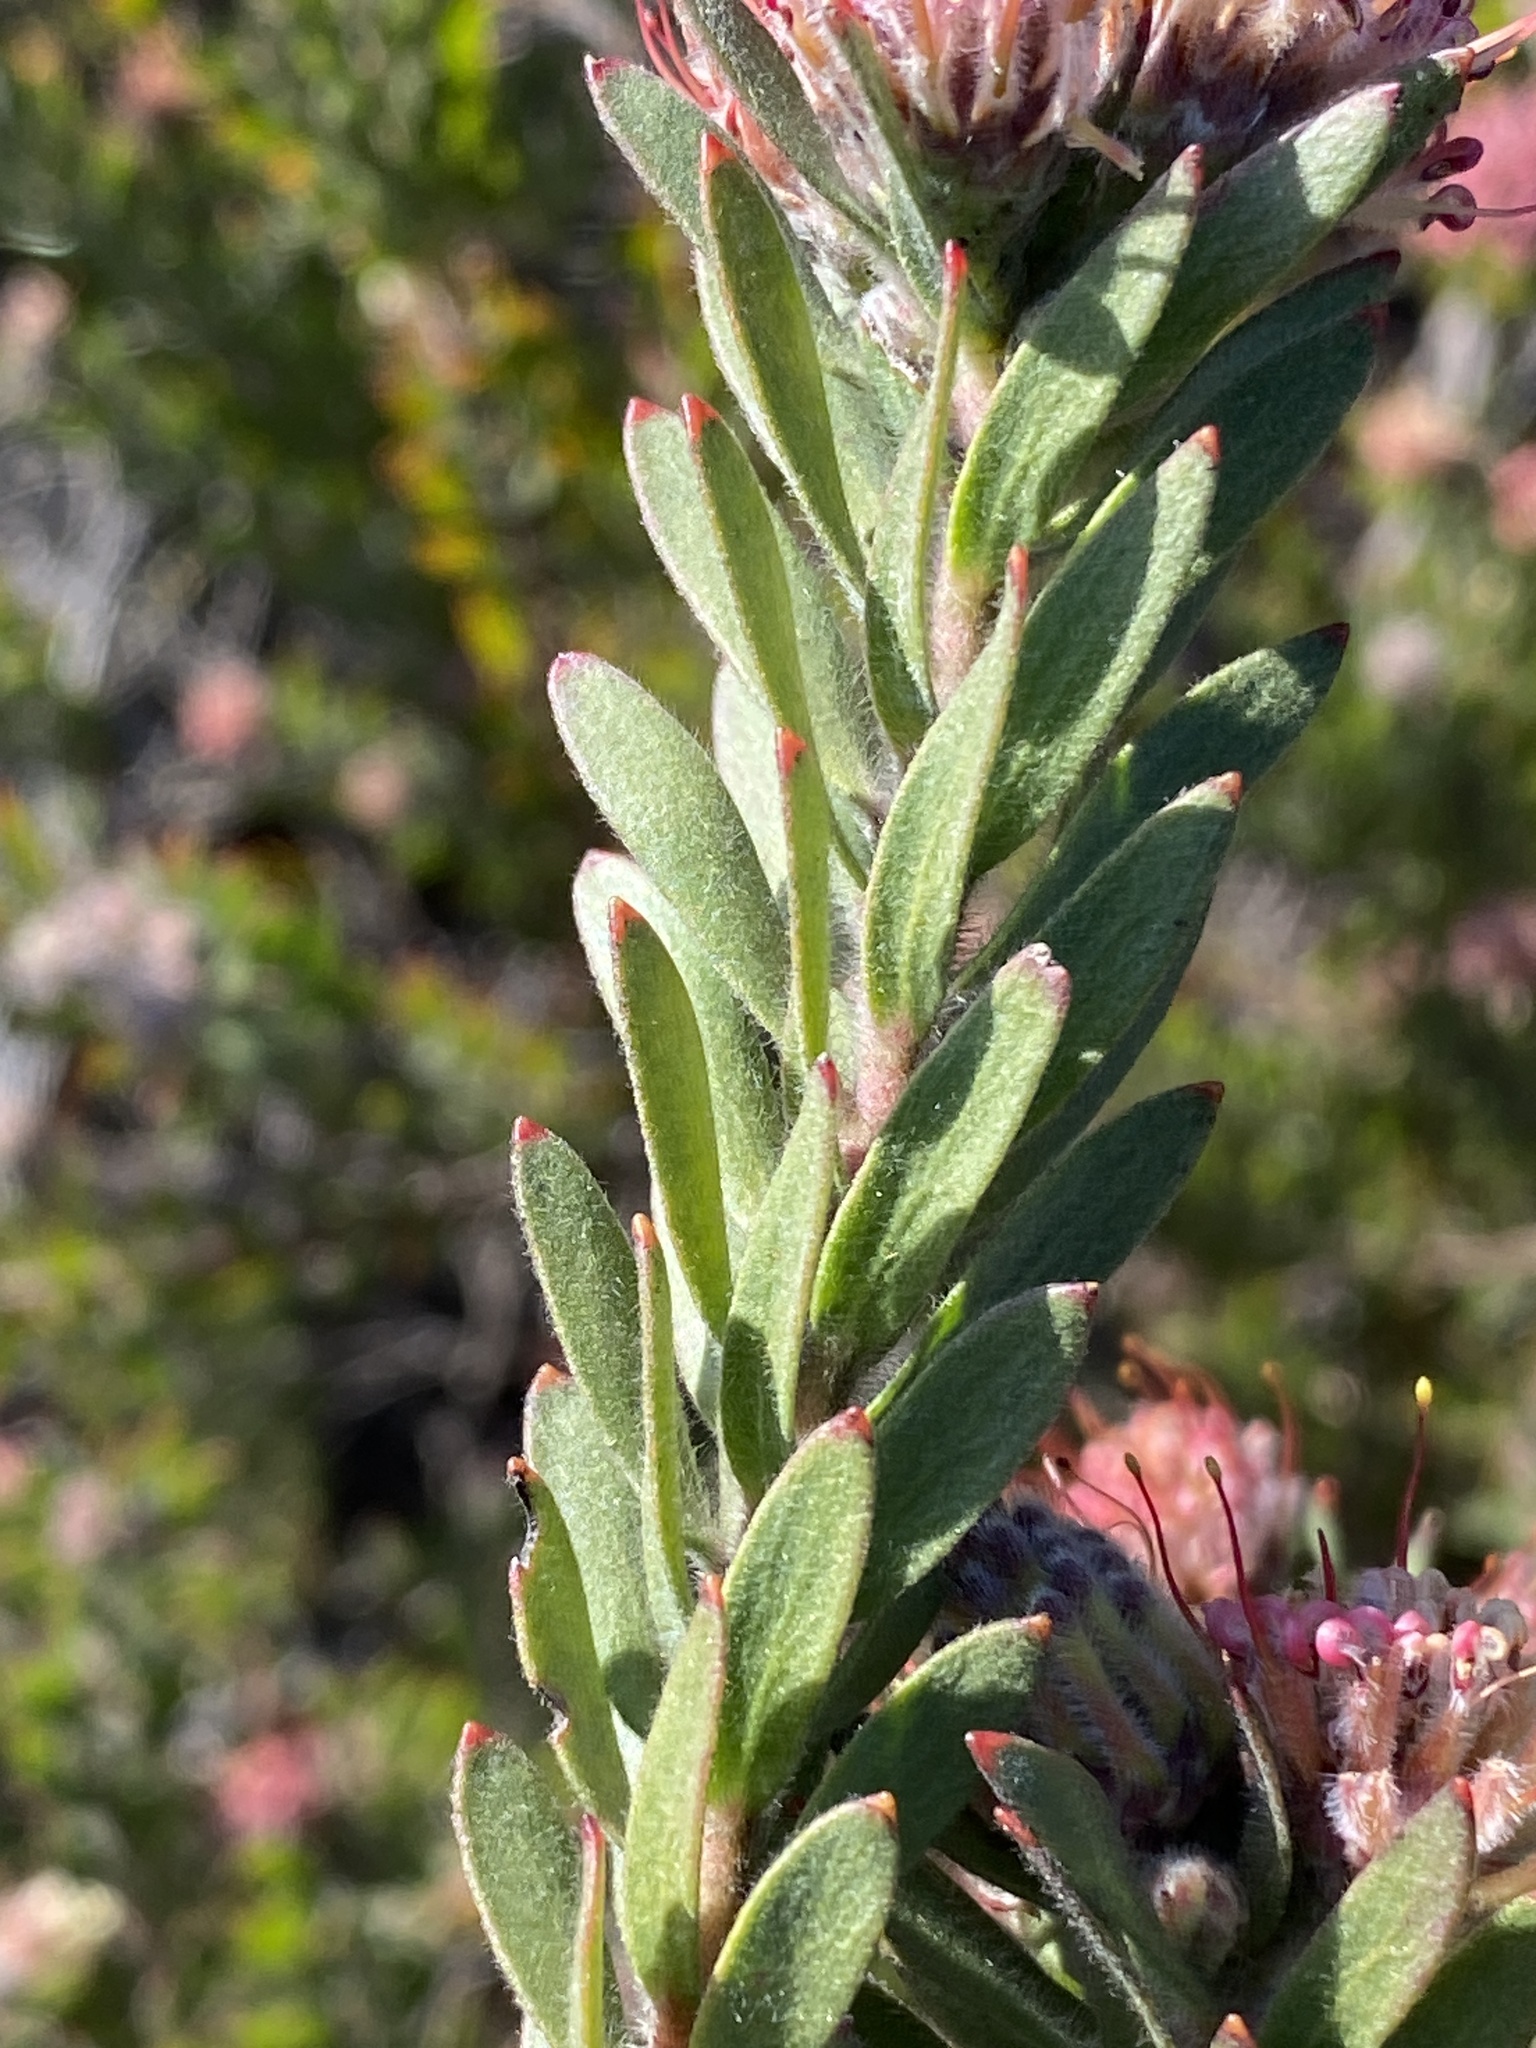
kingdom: Plantae
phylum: Tracheophyta
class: Magnoliopsida
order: Proteales
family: Proteaceae
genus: Leucospermum
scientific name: Leucospermum royenifolium
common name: Eastern pincushion
